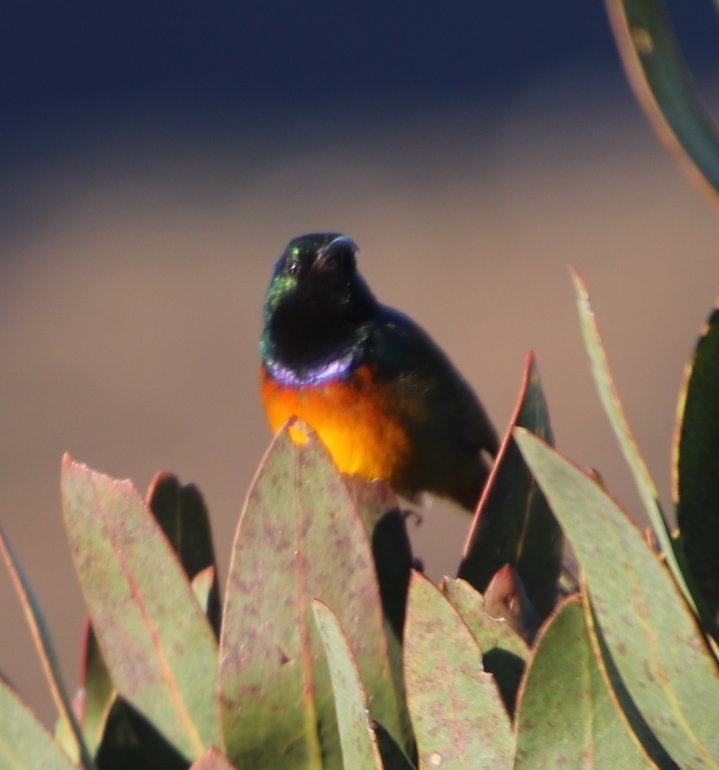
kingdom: Animalia
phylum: Chordata
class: Aves
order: Passeriformes
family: Nectariniidae
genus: Anthobaphes
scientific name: Anthobaphes violacea
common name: Orange-breasted sunbird
